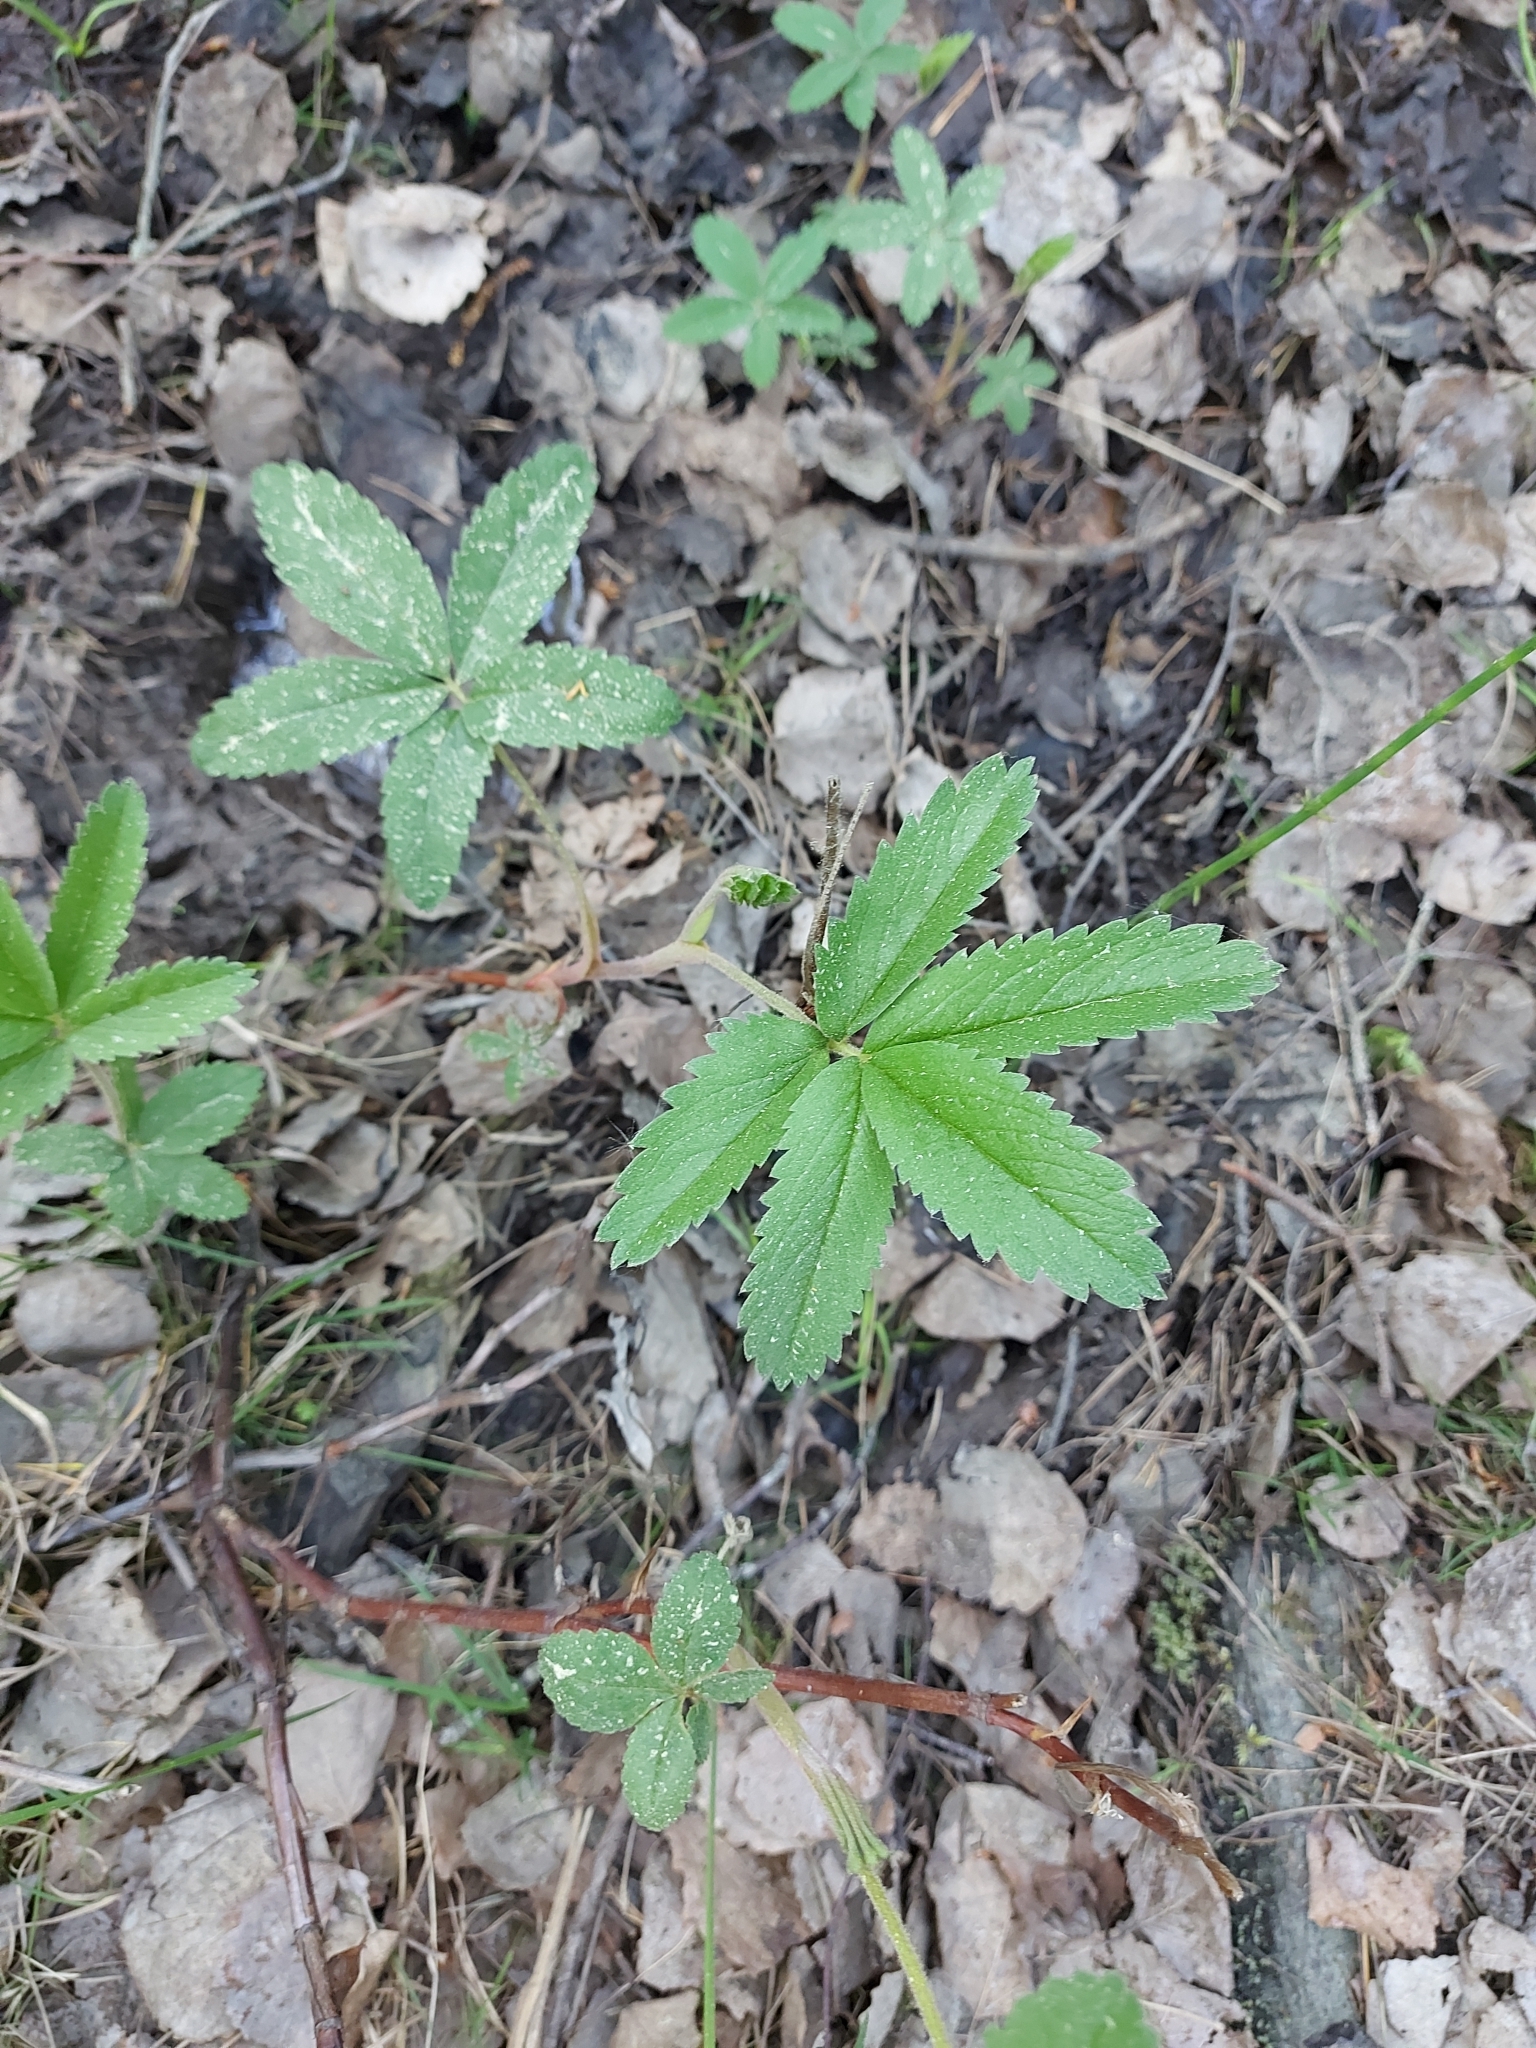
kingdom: Plantae
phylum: Tracheophyta
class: Magnoliopsida
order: Rosales
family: Rosaceae
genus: Comarum
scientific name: Comarum palustre
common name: Marsh cinquefoil
